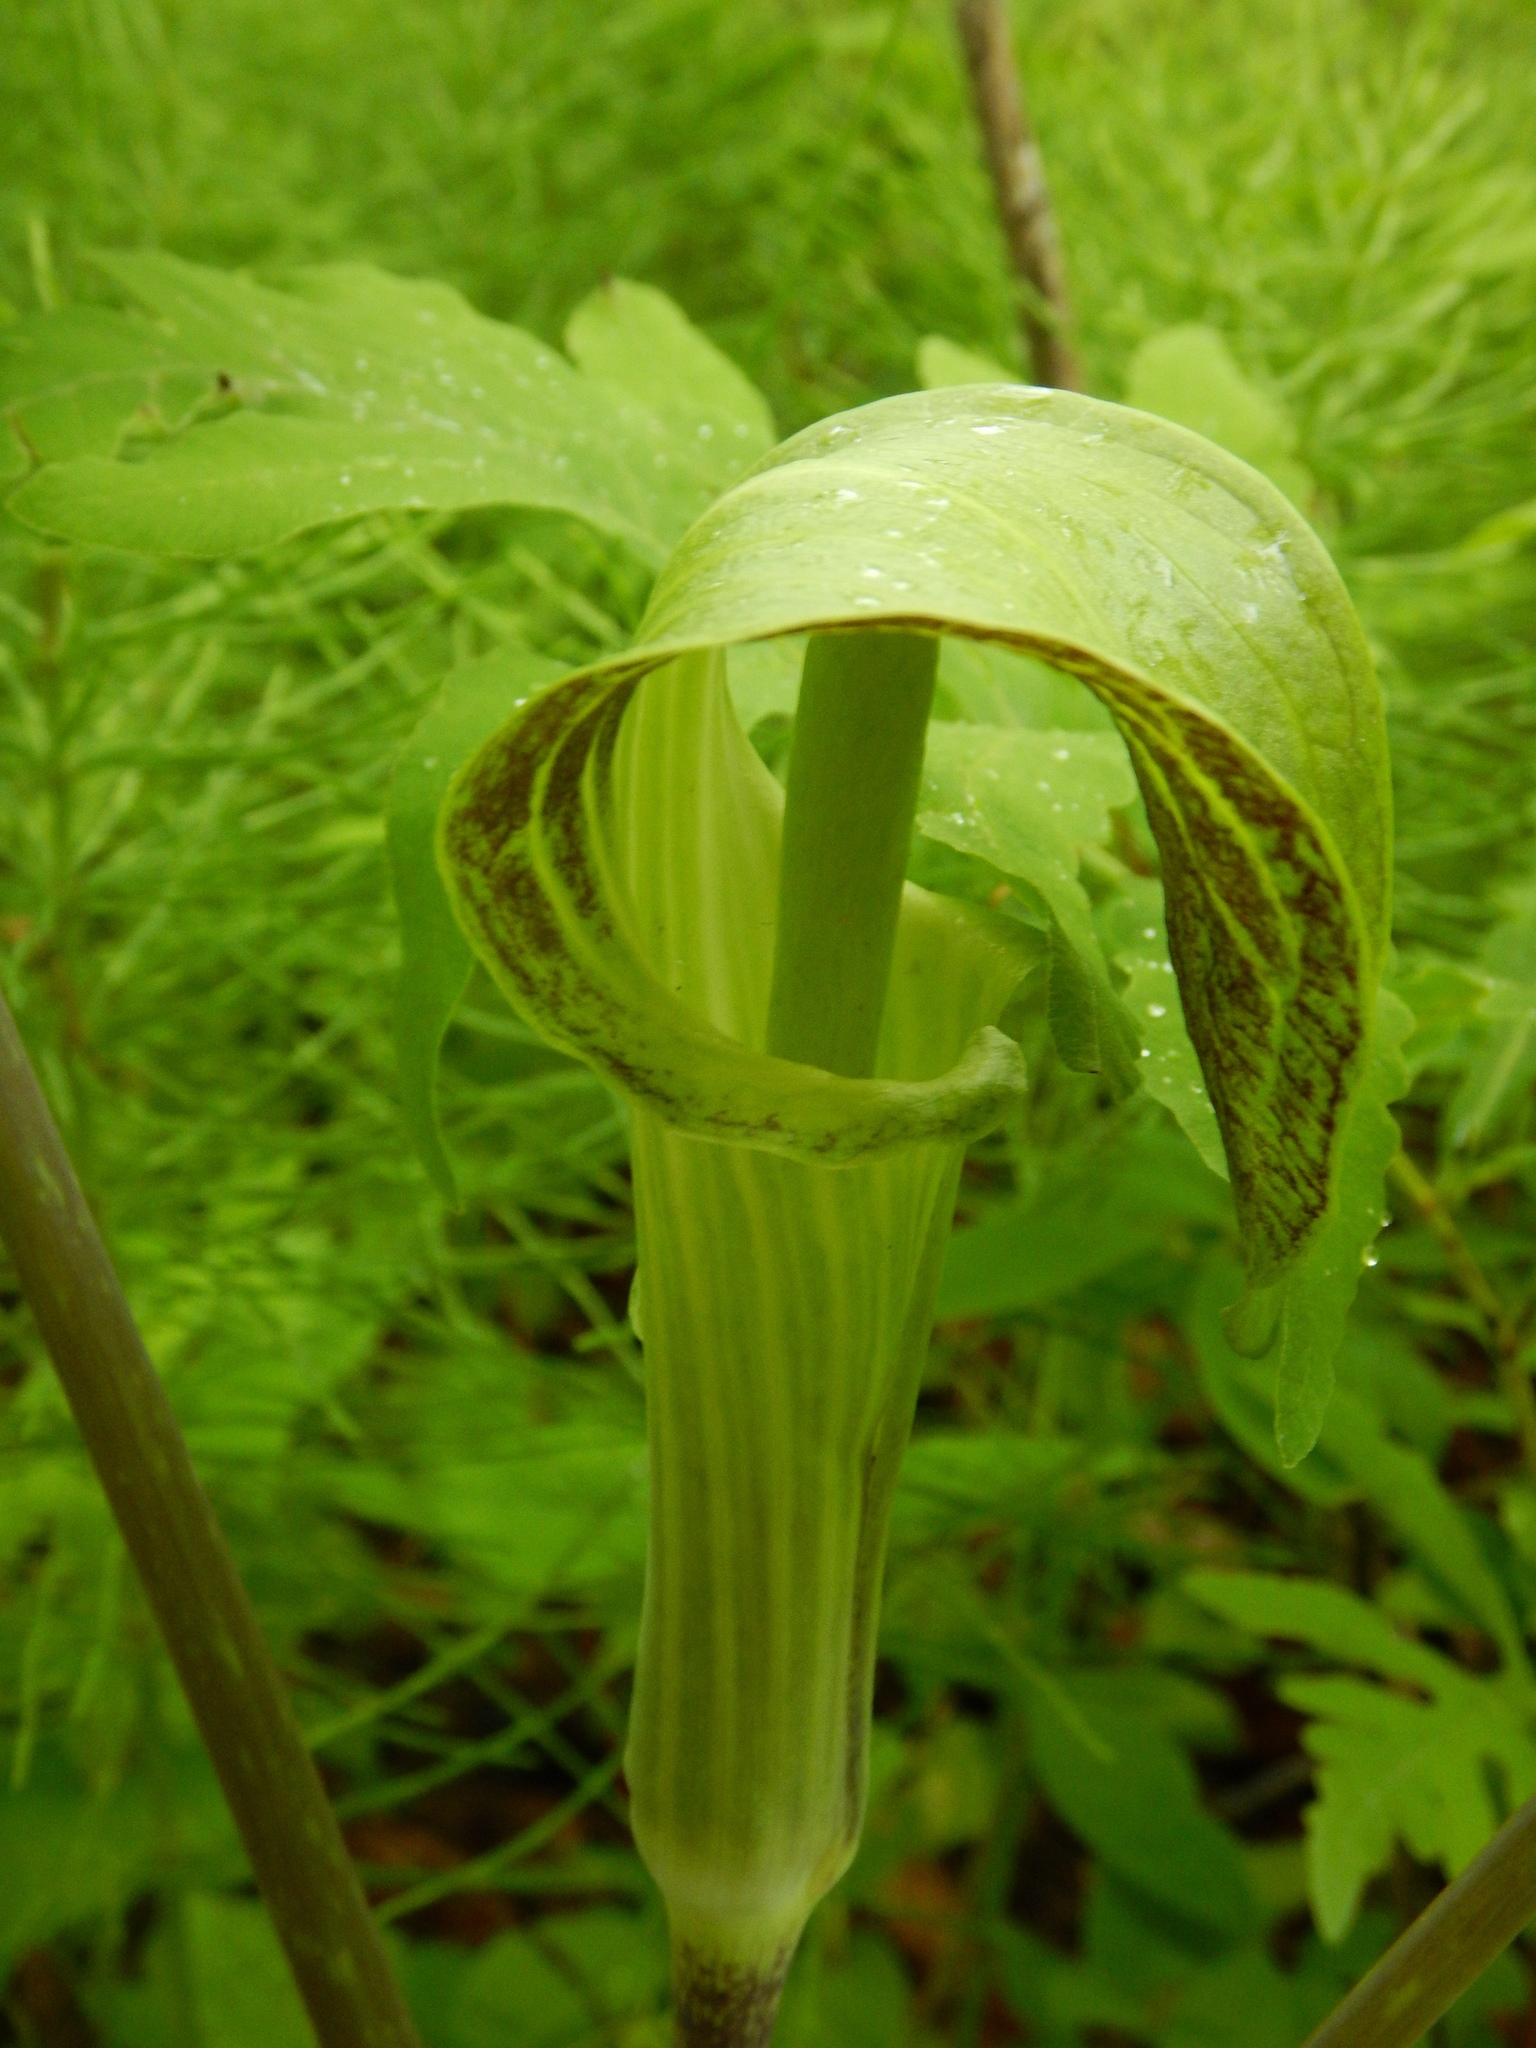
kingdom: Plantae
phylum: Tracheophyta
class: Liliopsida
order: Alismatales
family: Araceae
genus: Arisaema
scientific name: Arisaema triphyllum
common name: Jack-in-the-pulpit
